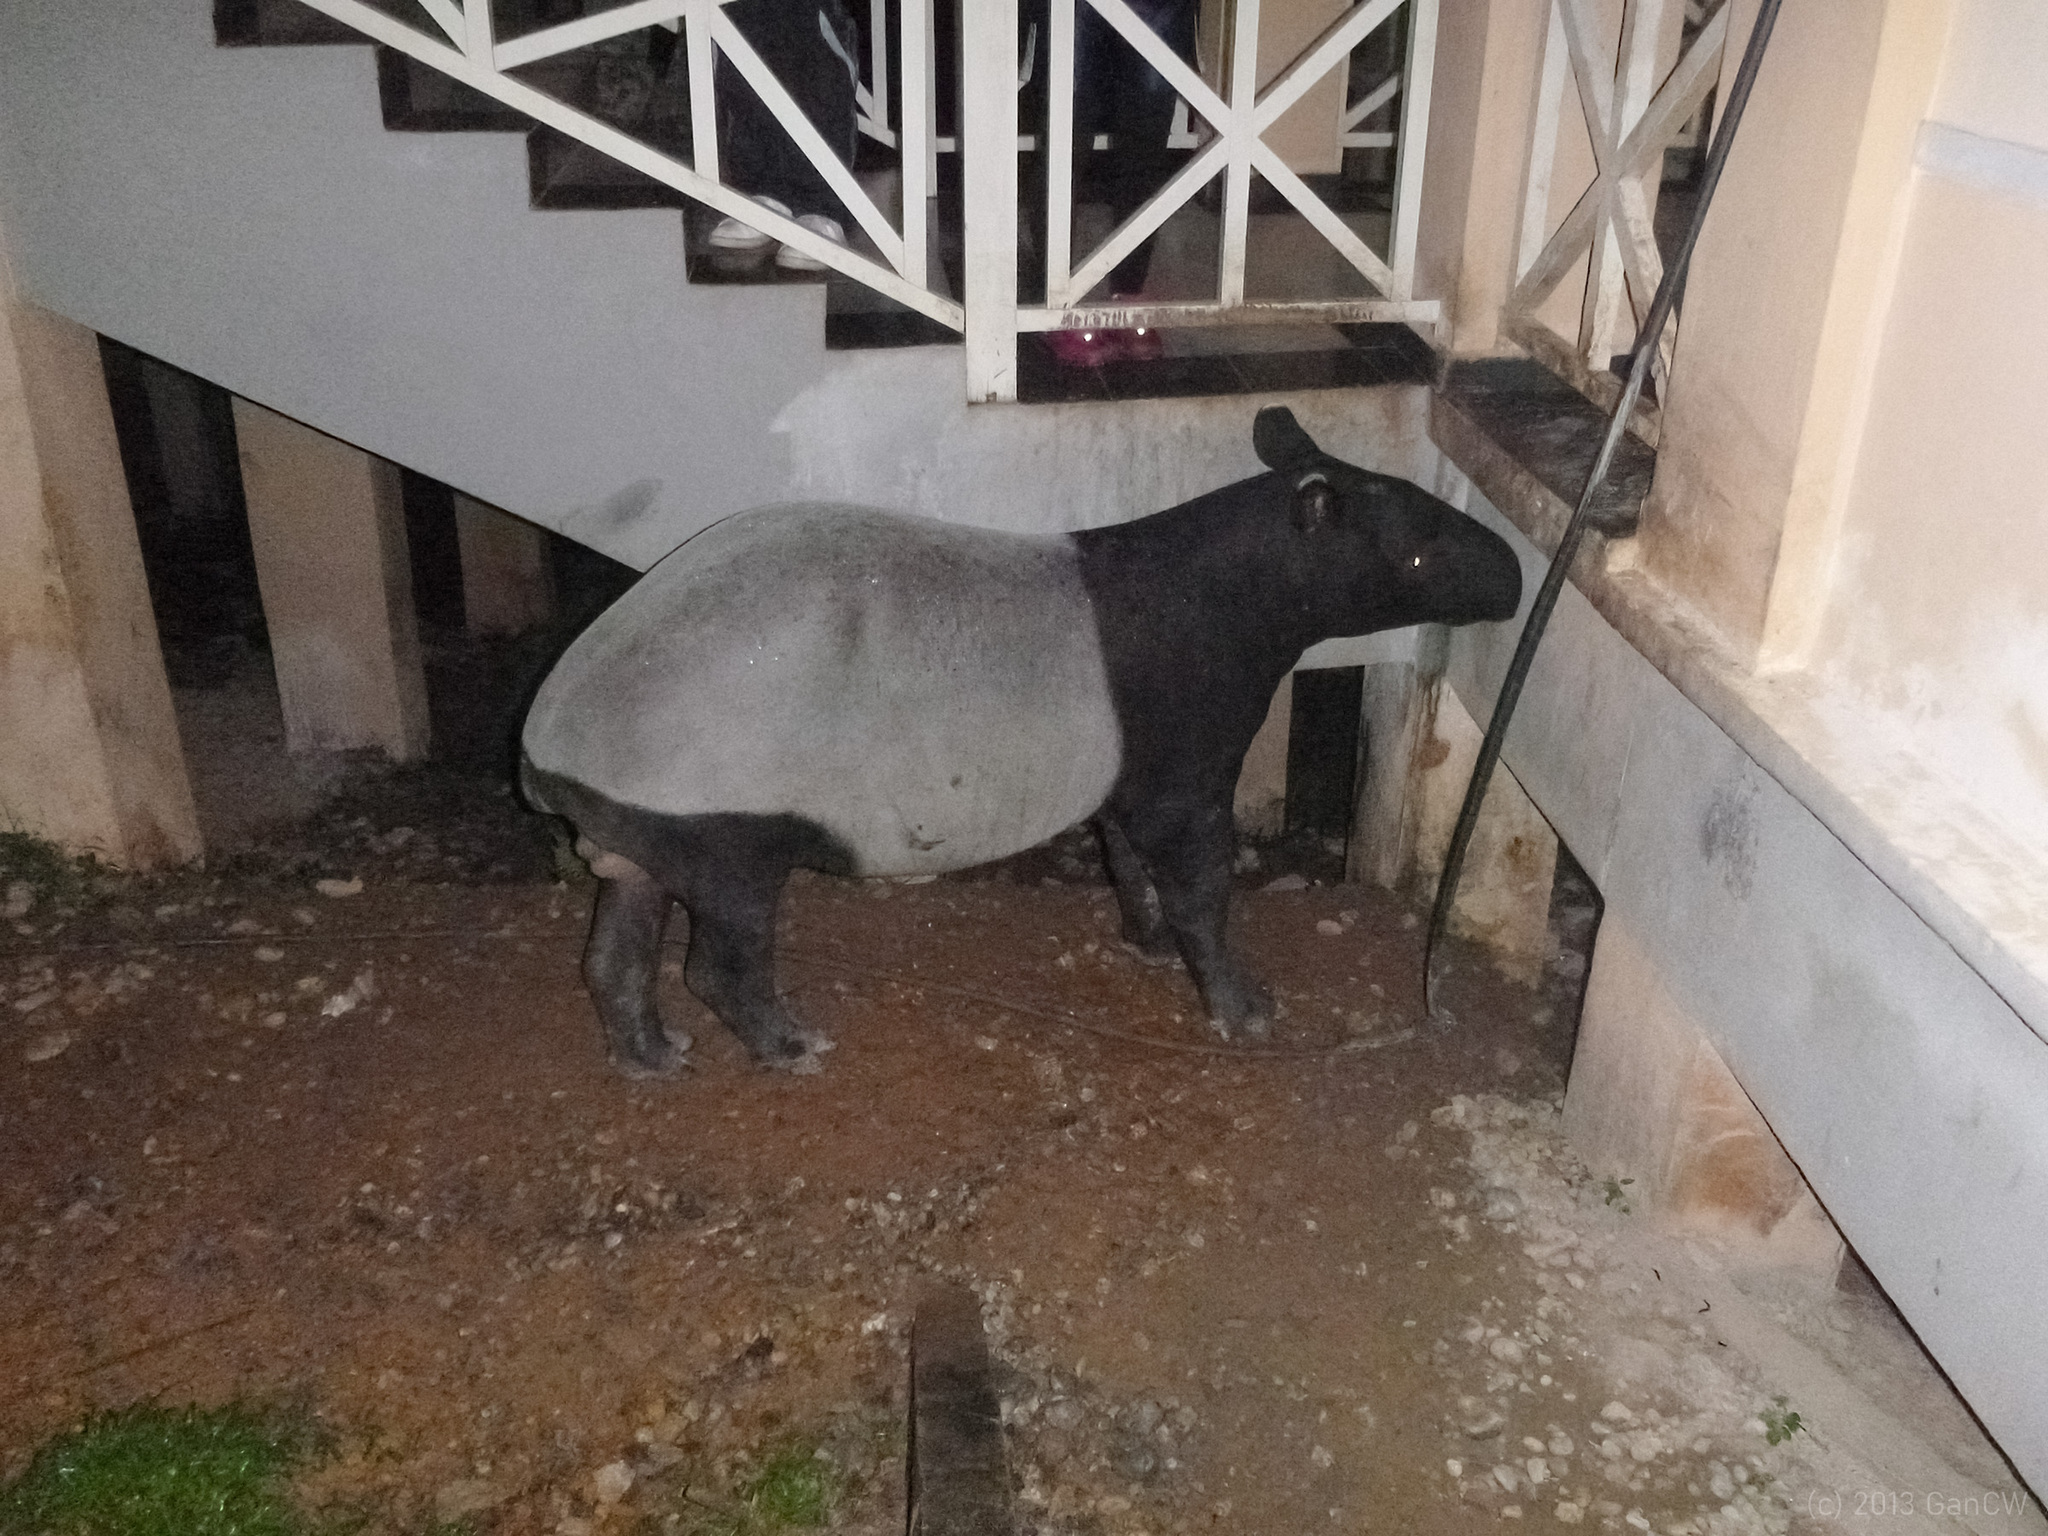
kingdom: Animalia
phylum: Chordata
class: Mammalia
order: Perissodactyla
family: Tapiridae
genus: Acrocodia
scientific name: Acrocodia indica
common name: Malayan tapir
